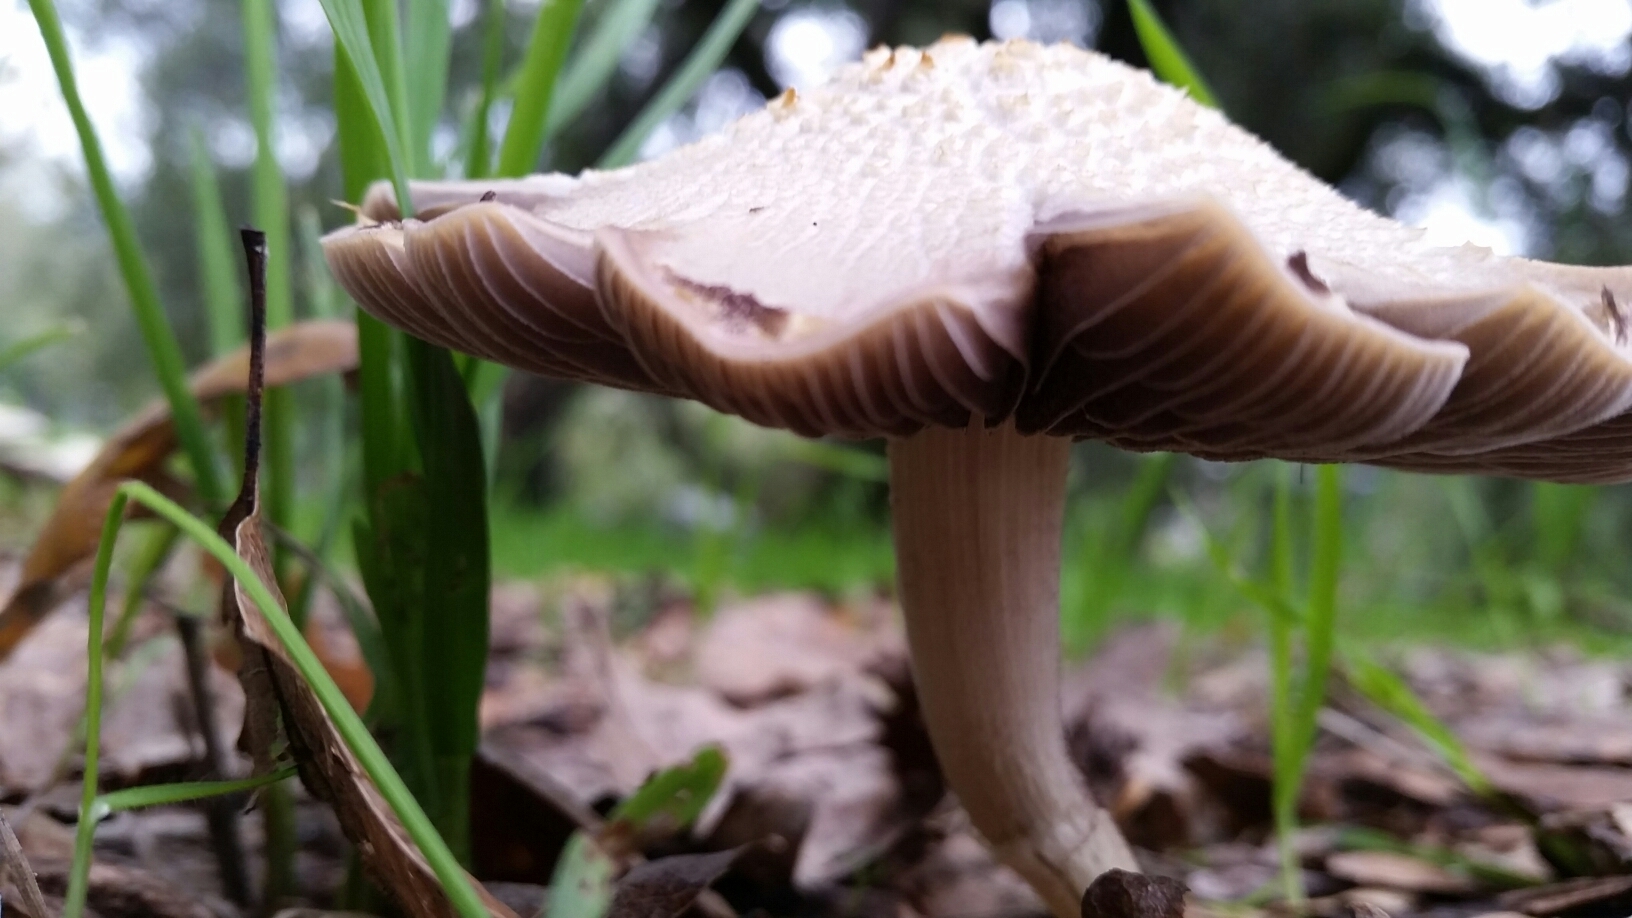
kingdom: Fungi
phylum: Basidiomycota
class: Agaricomycetes
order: Agaricales
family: Strophariaceae
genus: Leratiomyces
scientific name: Leratiomyces percevalii
